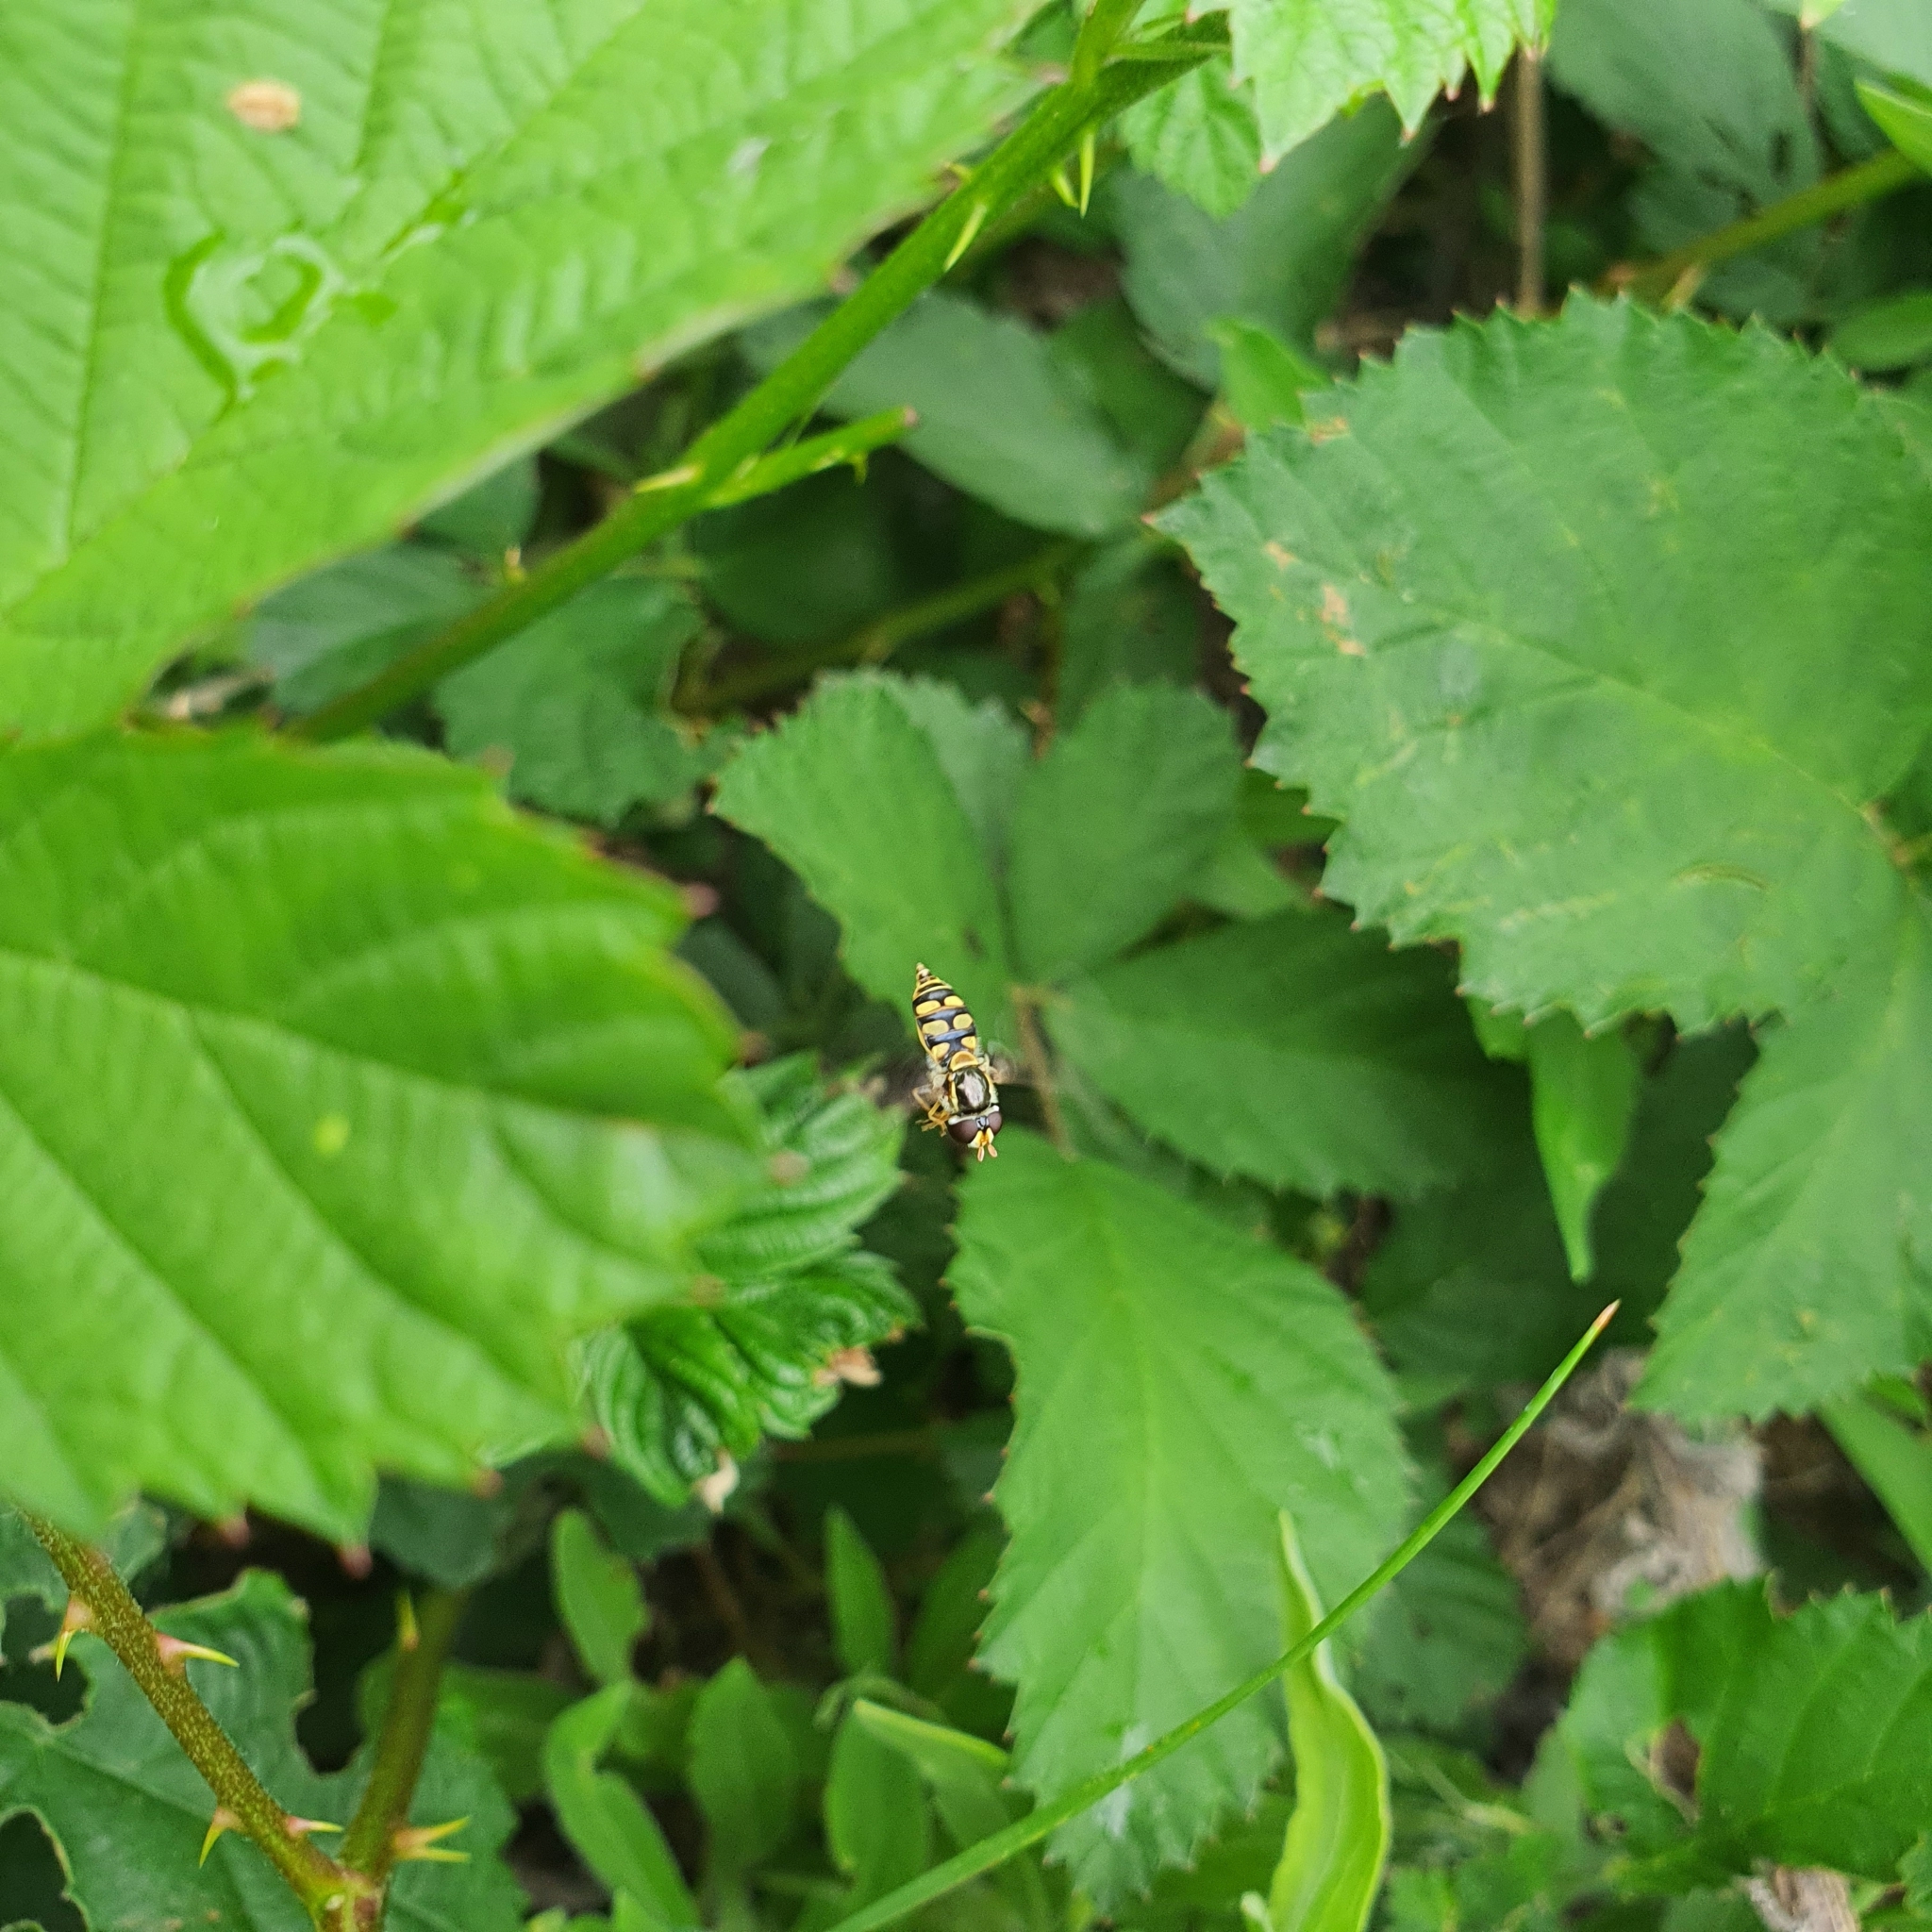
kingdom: Animalia
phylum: Arthropoda
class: Insecta
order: Diptera
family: Syrphidae
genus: Simosyrphus
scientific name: Simosyrphus grandicornis
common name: Hoverfly
